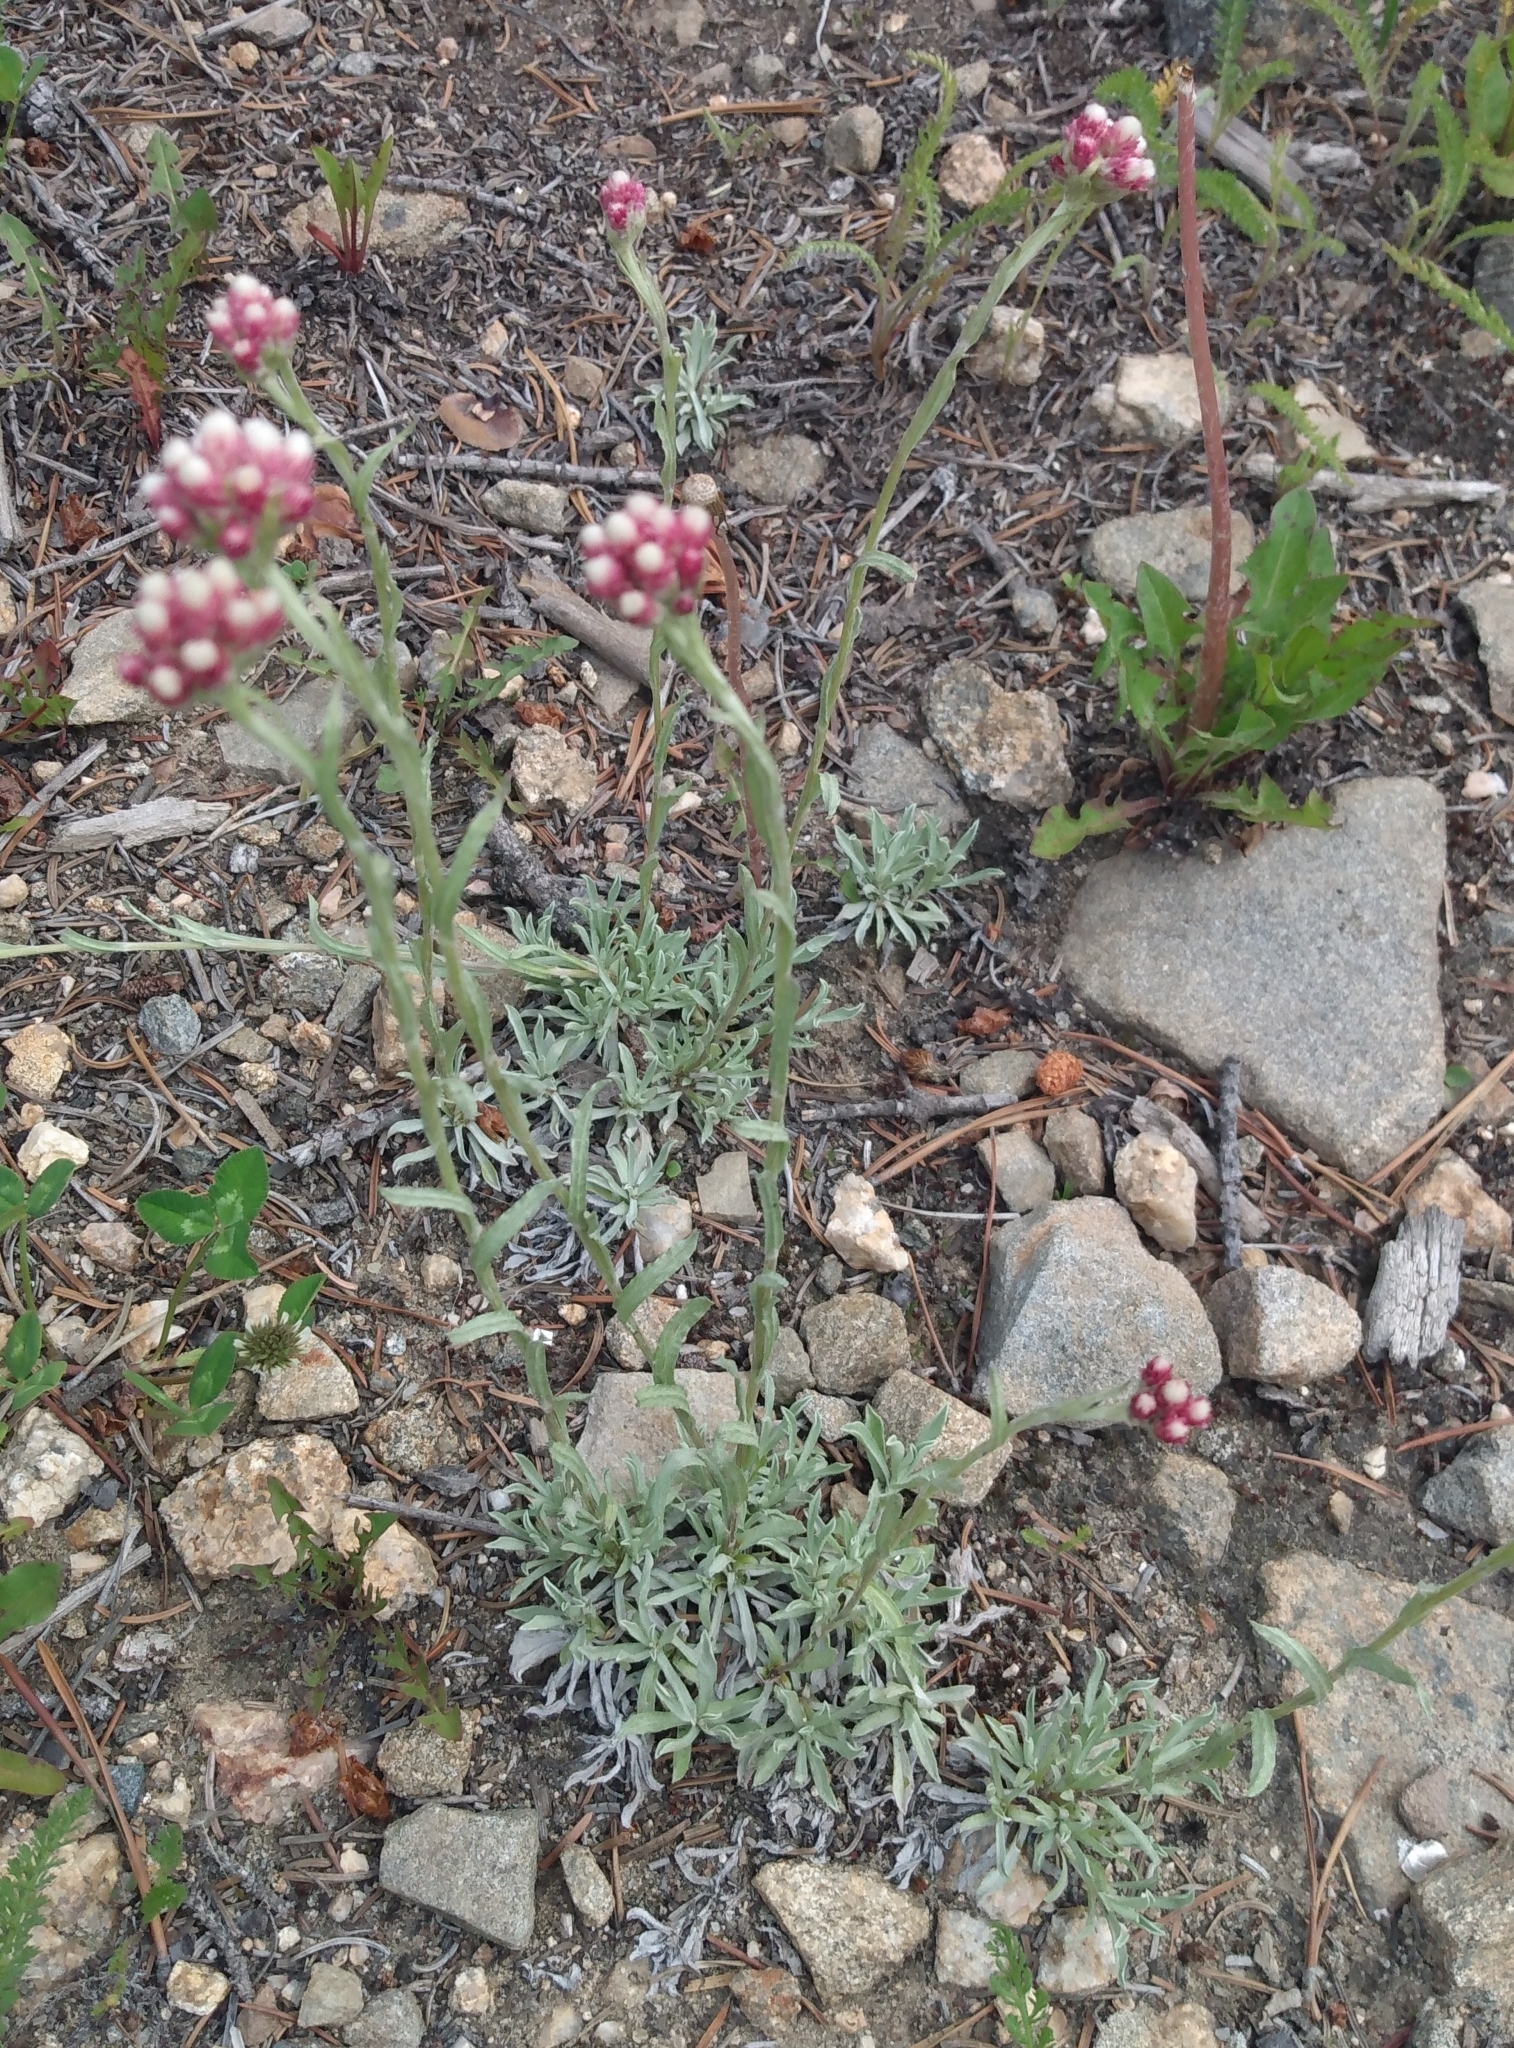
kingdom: Plantae
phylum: Tracheophyta
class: Magnoliopsida
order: Asterales
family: Asteraceae
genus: Antennaria
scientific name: Antennaria rosea
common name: Rosy pussytoes
